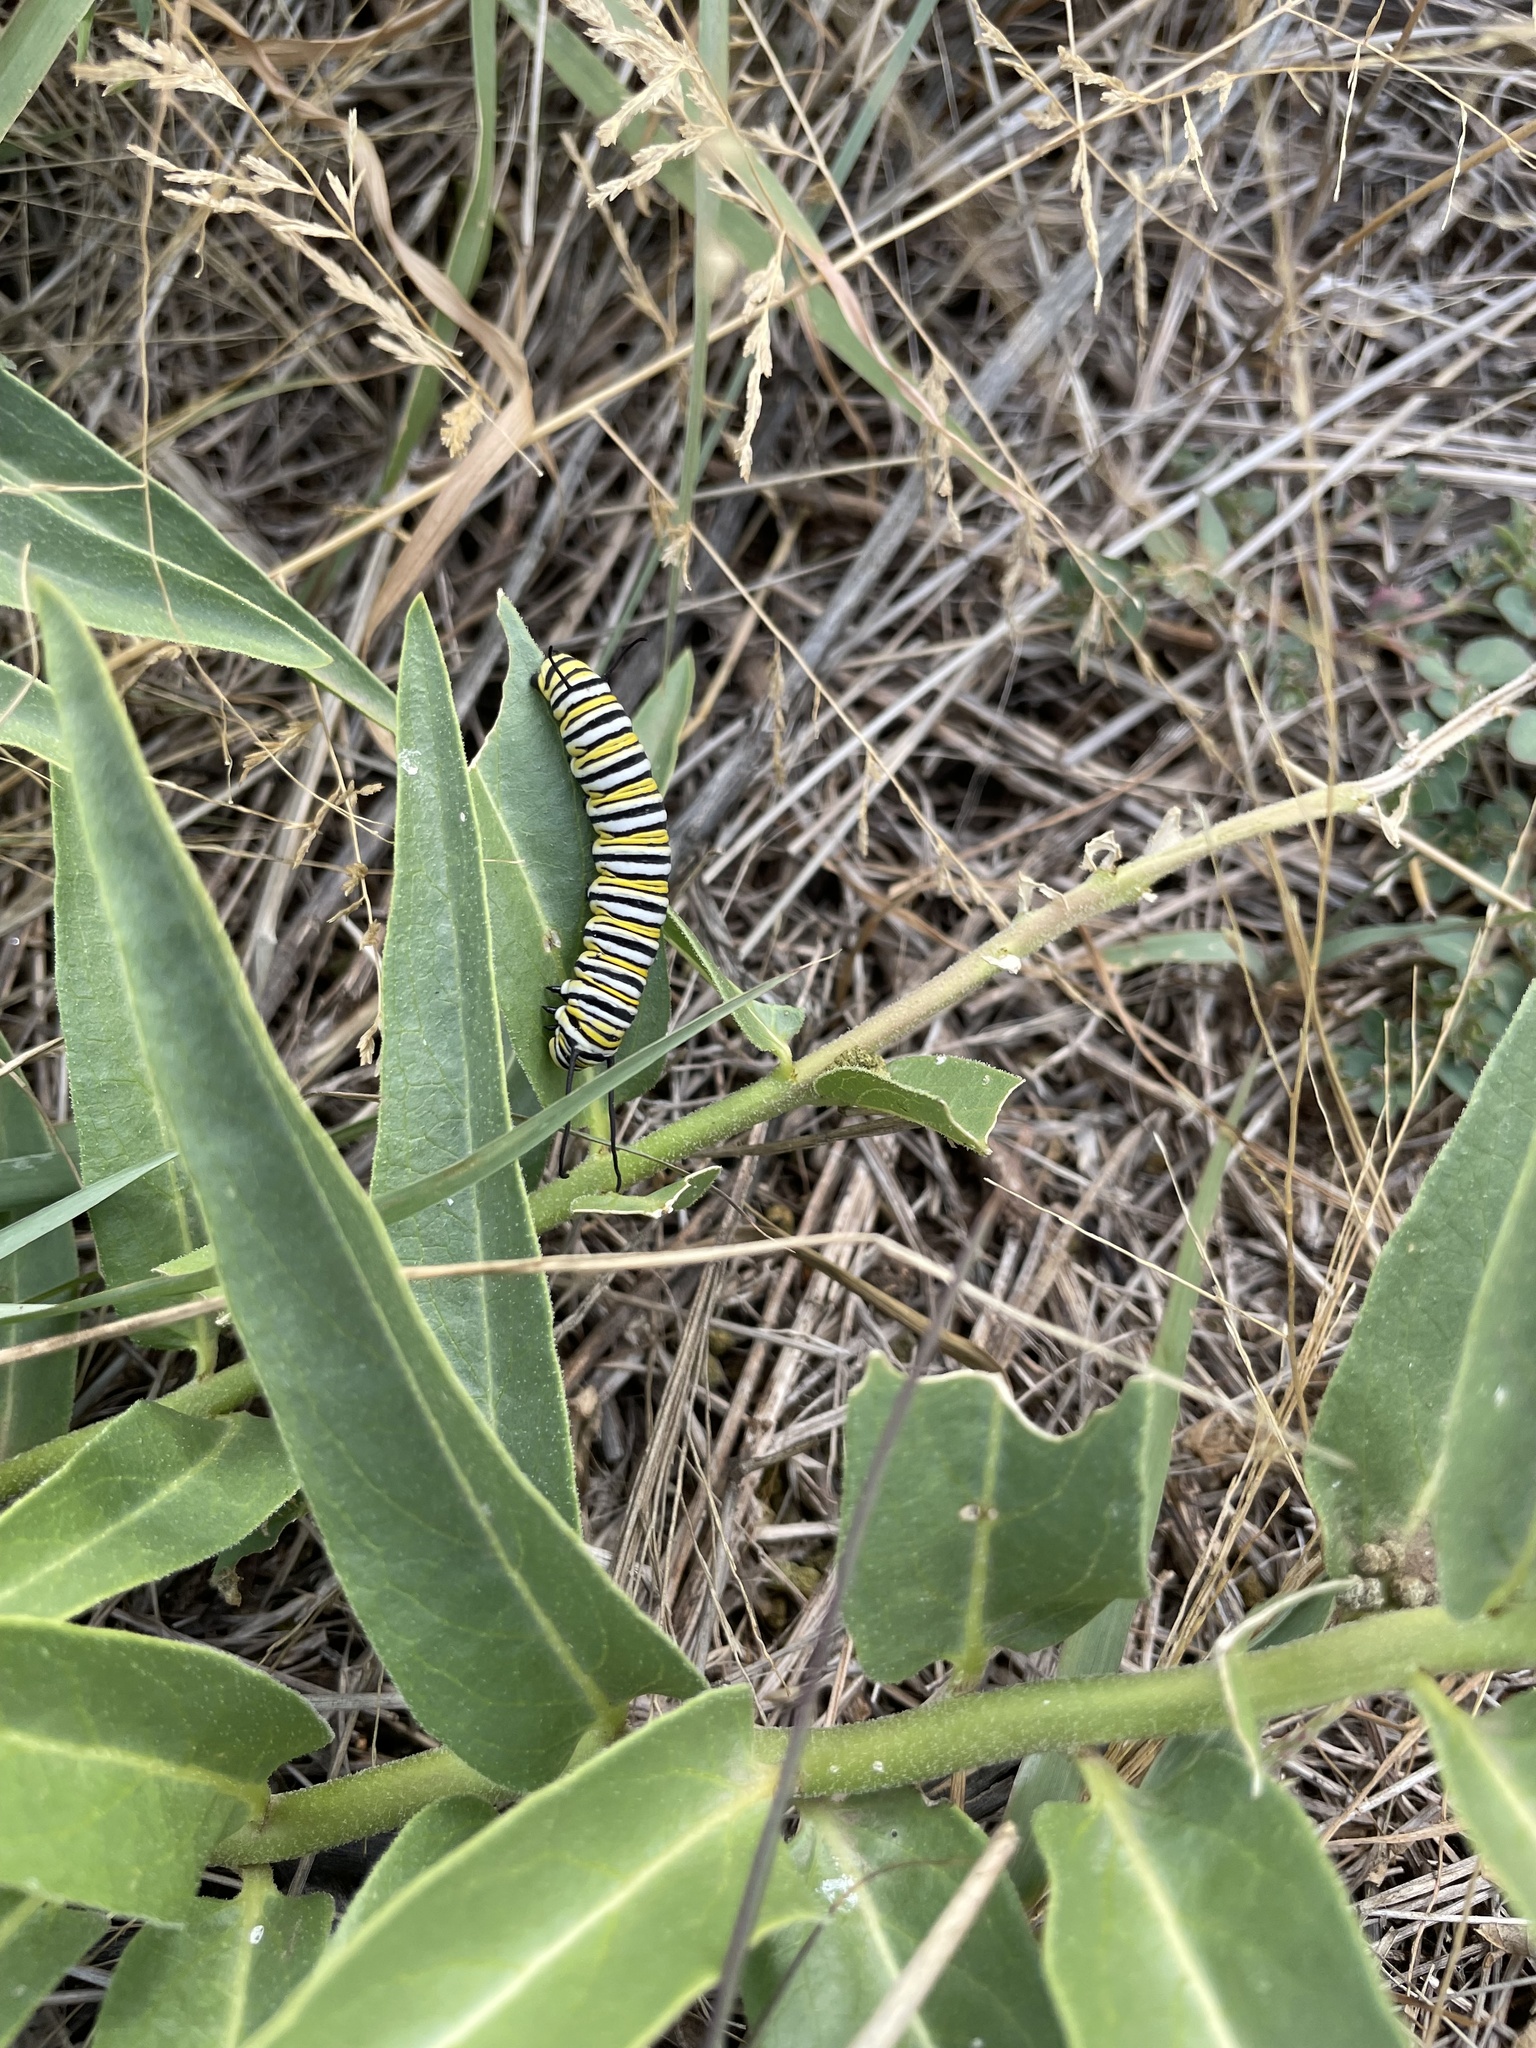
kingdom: Animalia
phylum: Arthropoda
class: Insecta
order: Lepidoptera
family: Nymphalidae
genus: Danaus
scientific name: Danaus plexippus
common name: Monarch
